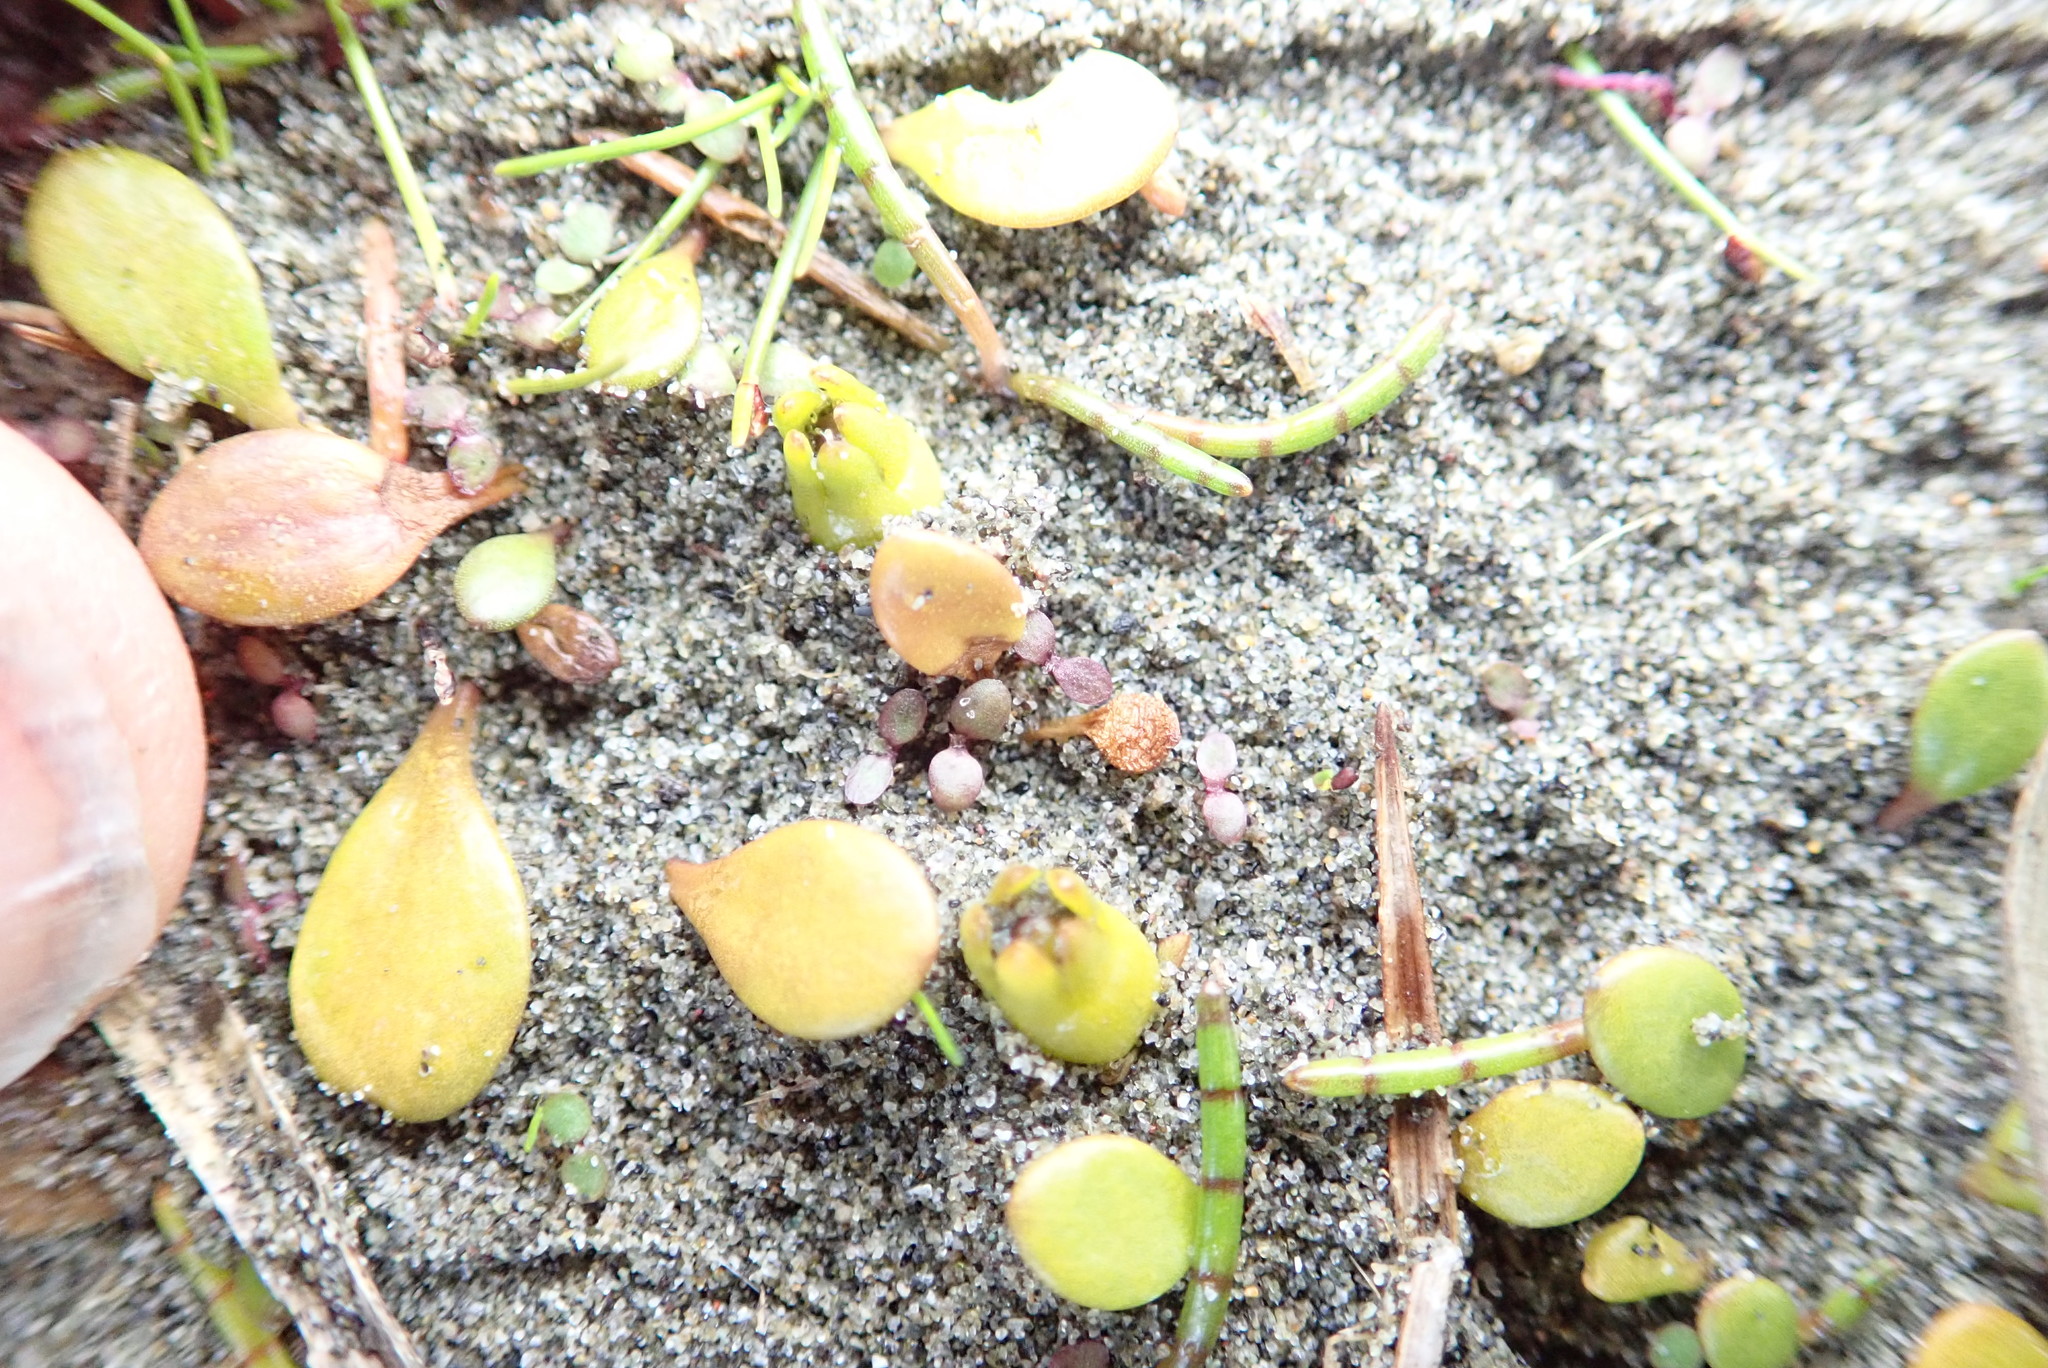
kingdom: Plantae
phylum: Tracheophyta
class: Magnoliopsida
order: Apiales
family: Apiaceae
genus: Lilaeopsis
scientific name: Lilaeopsis novae-zelandiae
